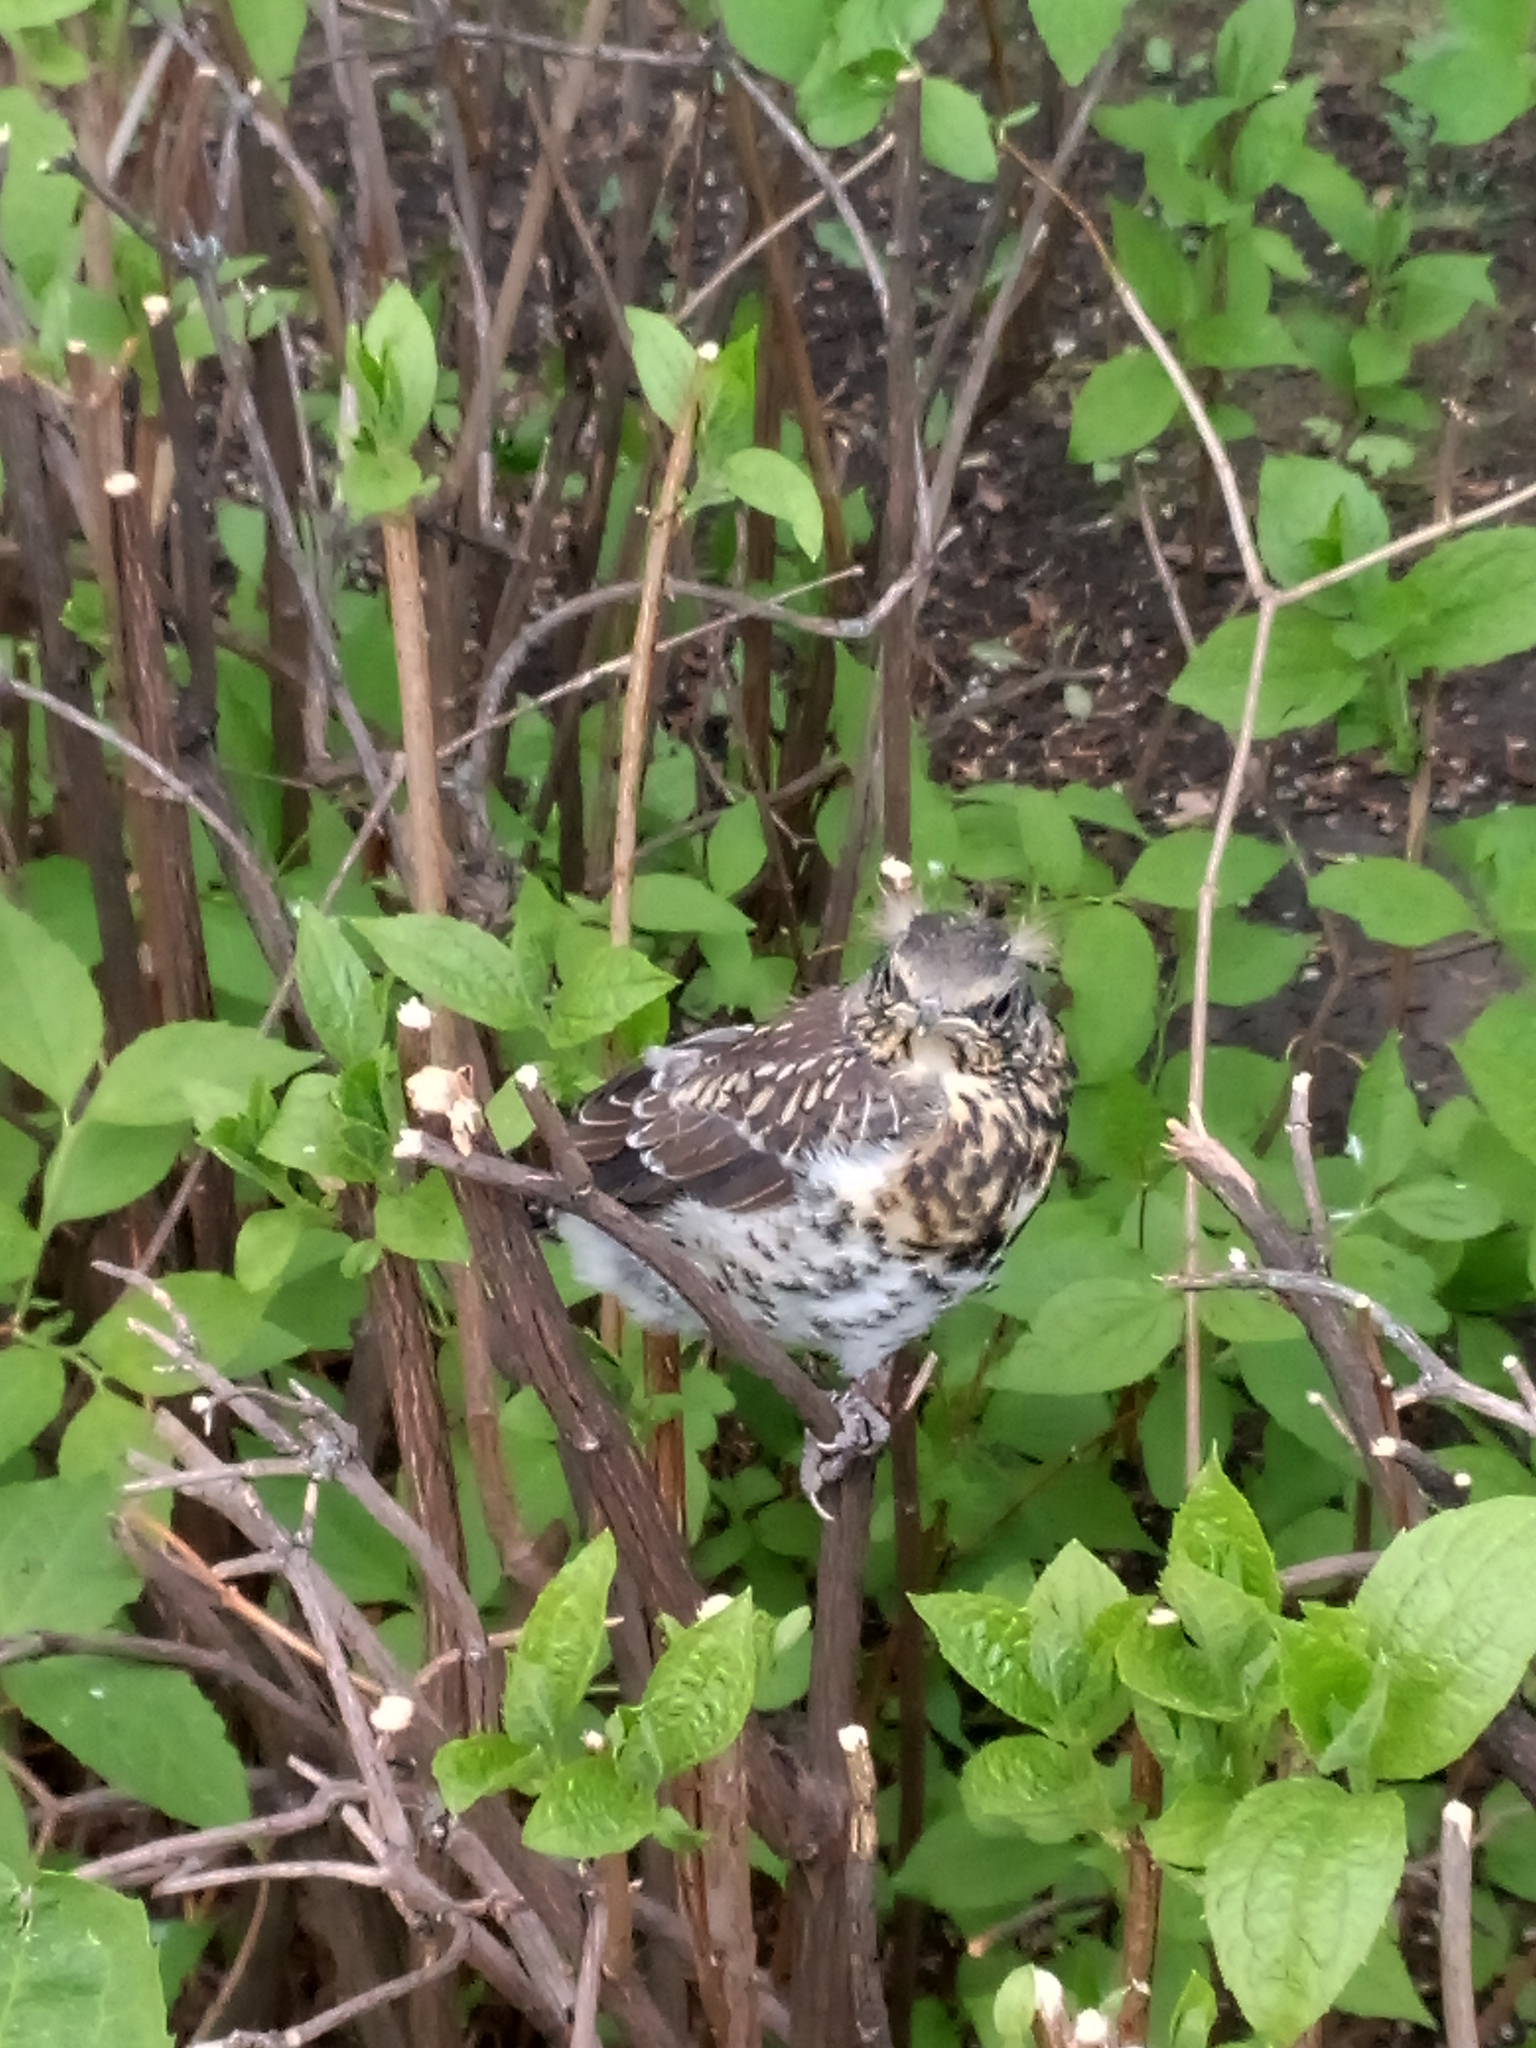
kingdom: Animalia
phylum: Chordata
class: Aves
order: Passeriformes
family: Turdidae
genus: Turdus
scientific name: Turdus pilaris
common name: Fieldfare
